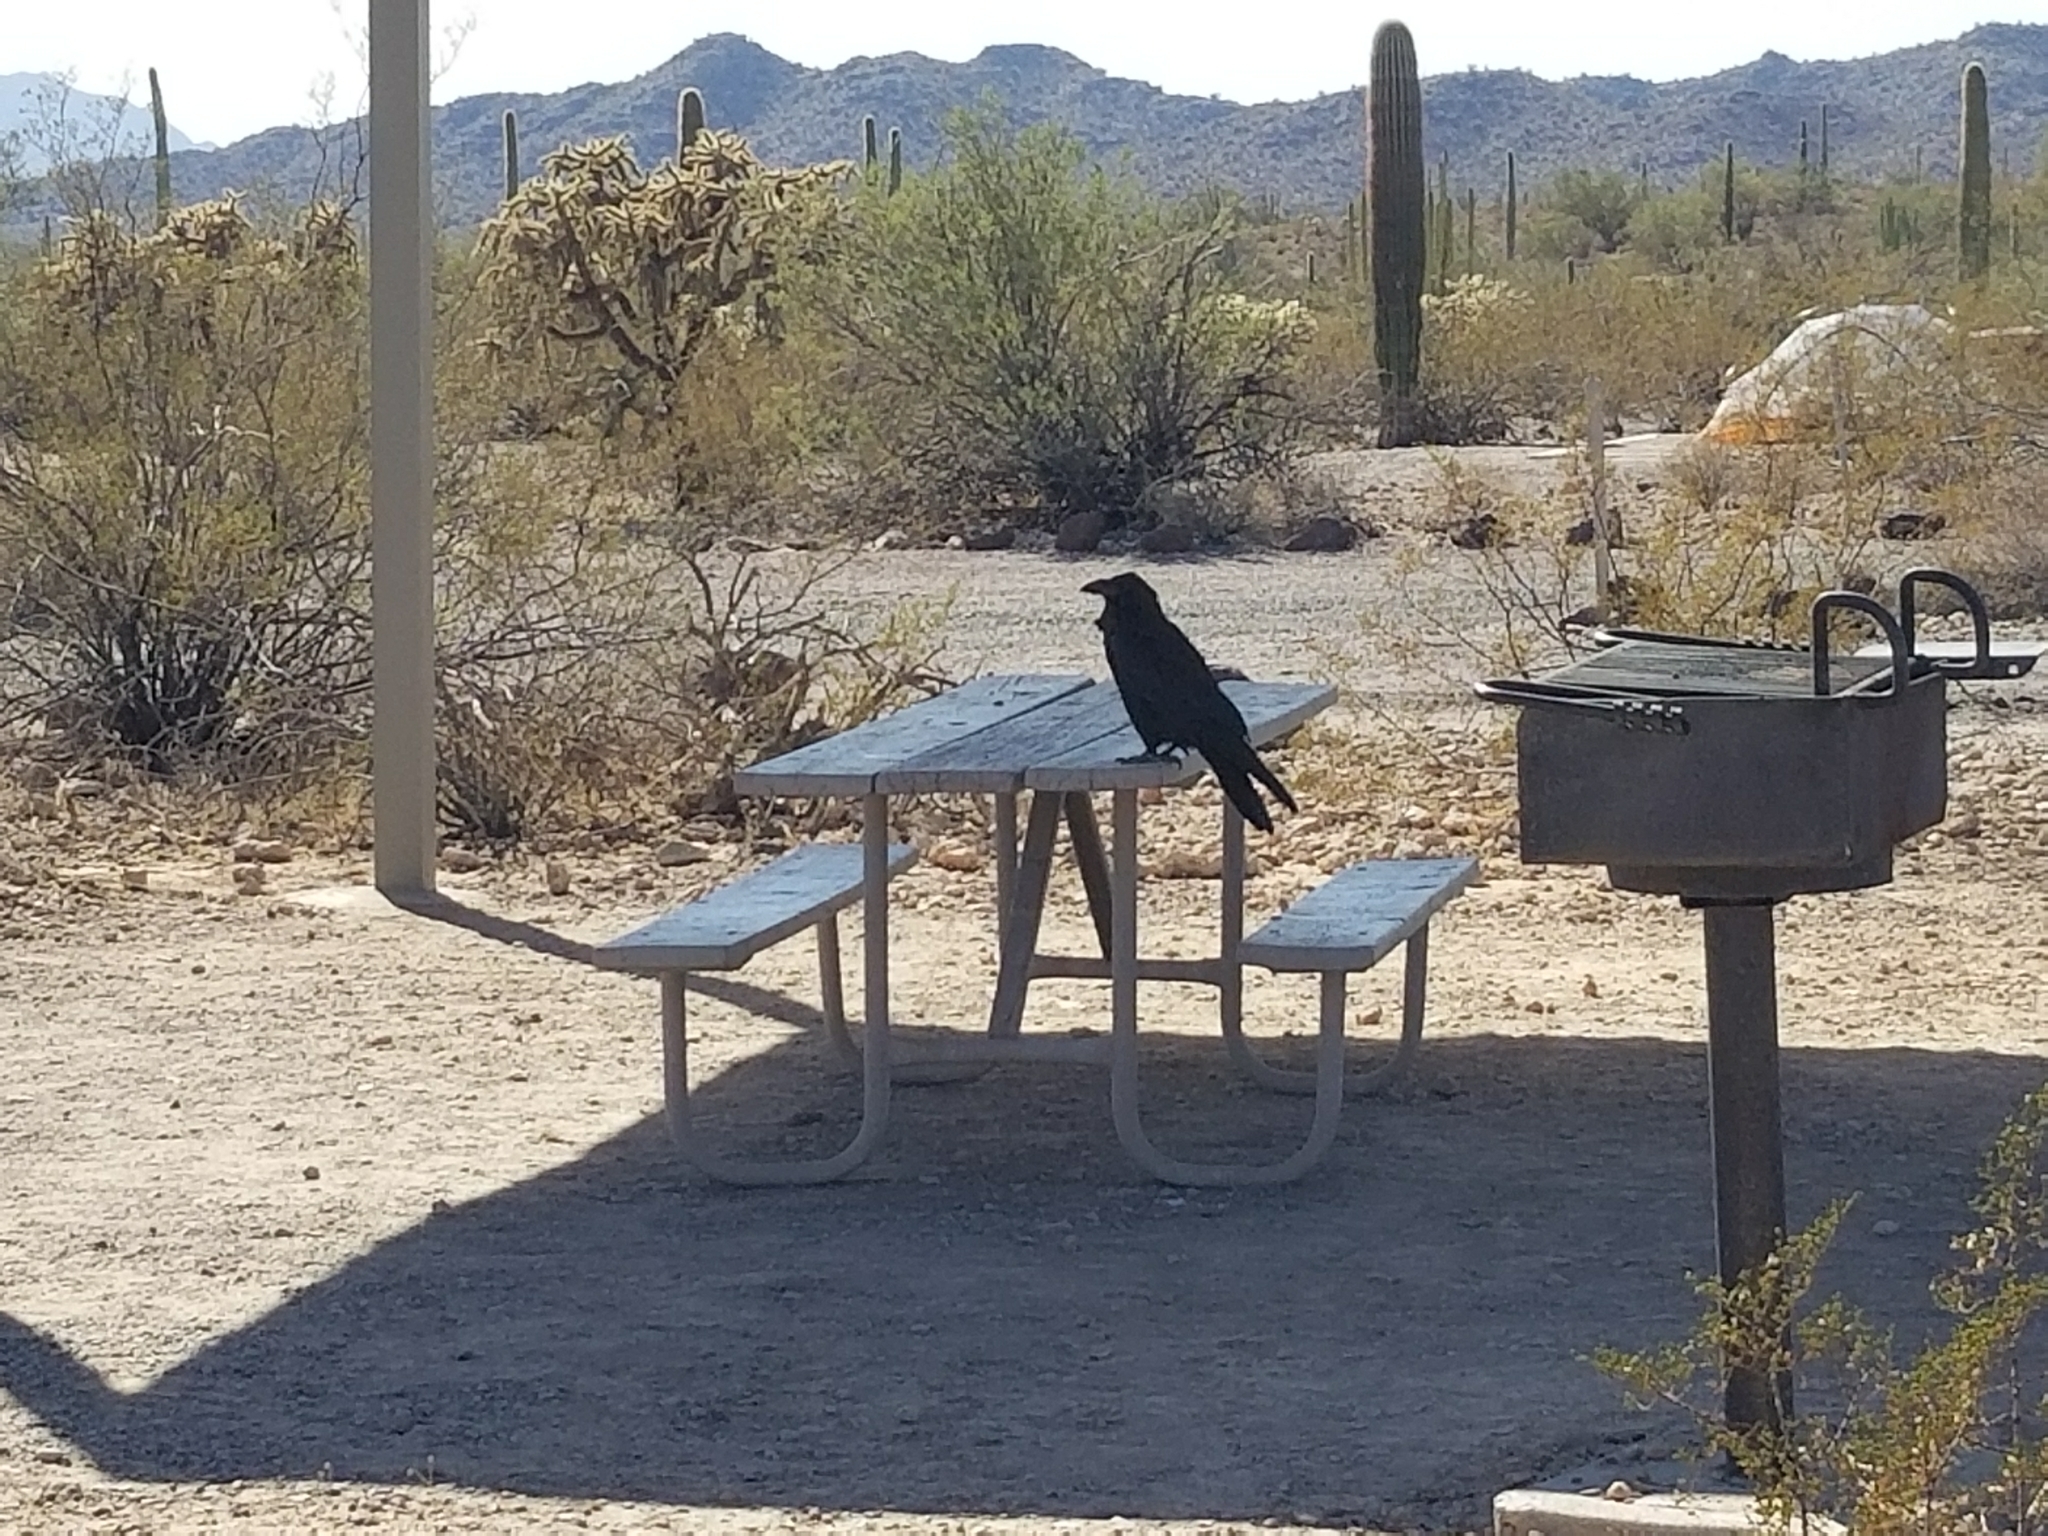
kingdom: Animalia
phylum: Chordata
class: Aves
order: Passeriformes
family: Corvidae
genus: Corvus
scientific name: Corvus corax
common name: Common raven
